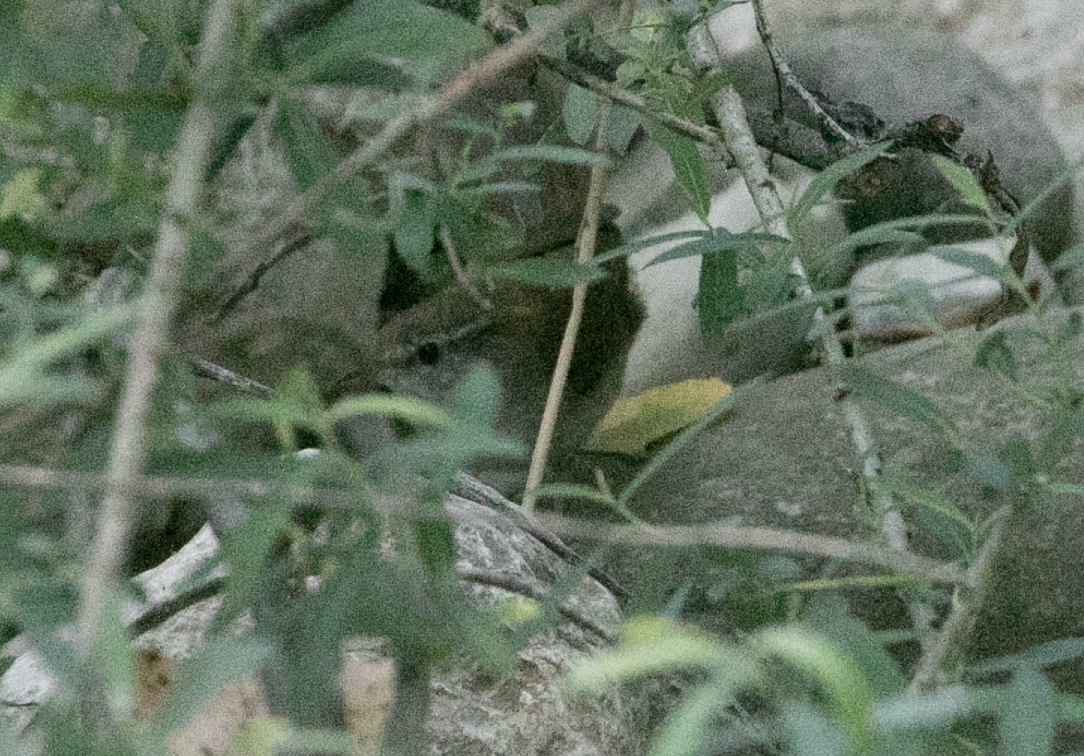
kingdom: Animalia
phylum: Chordata
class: Aves
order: Passeriformes
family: Cettiidae
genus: Cettia
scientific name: Cettia cetti
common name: Cetti's warbler
